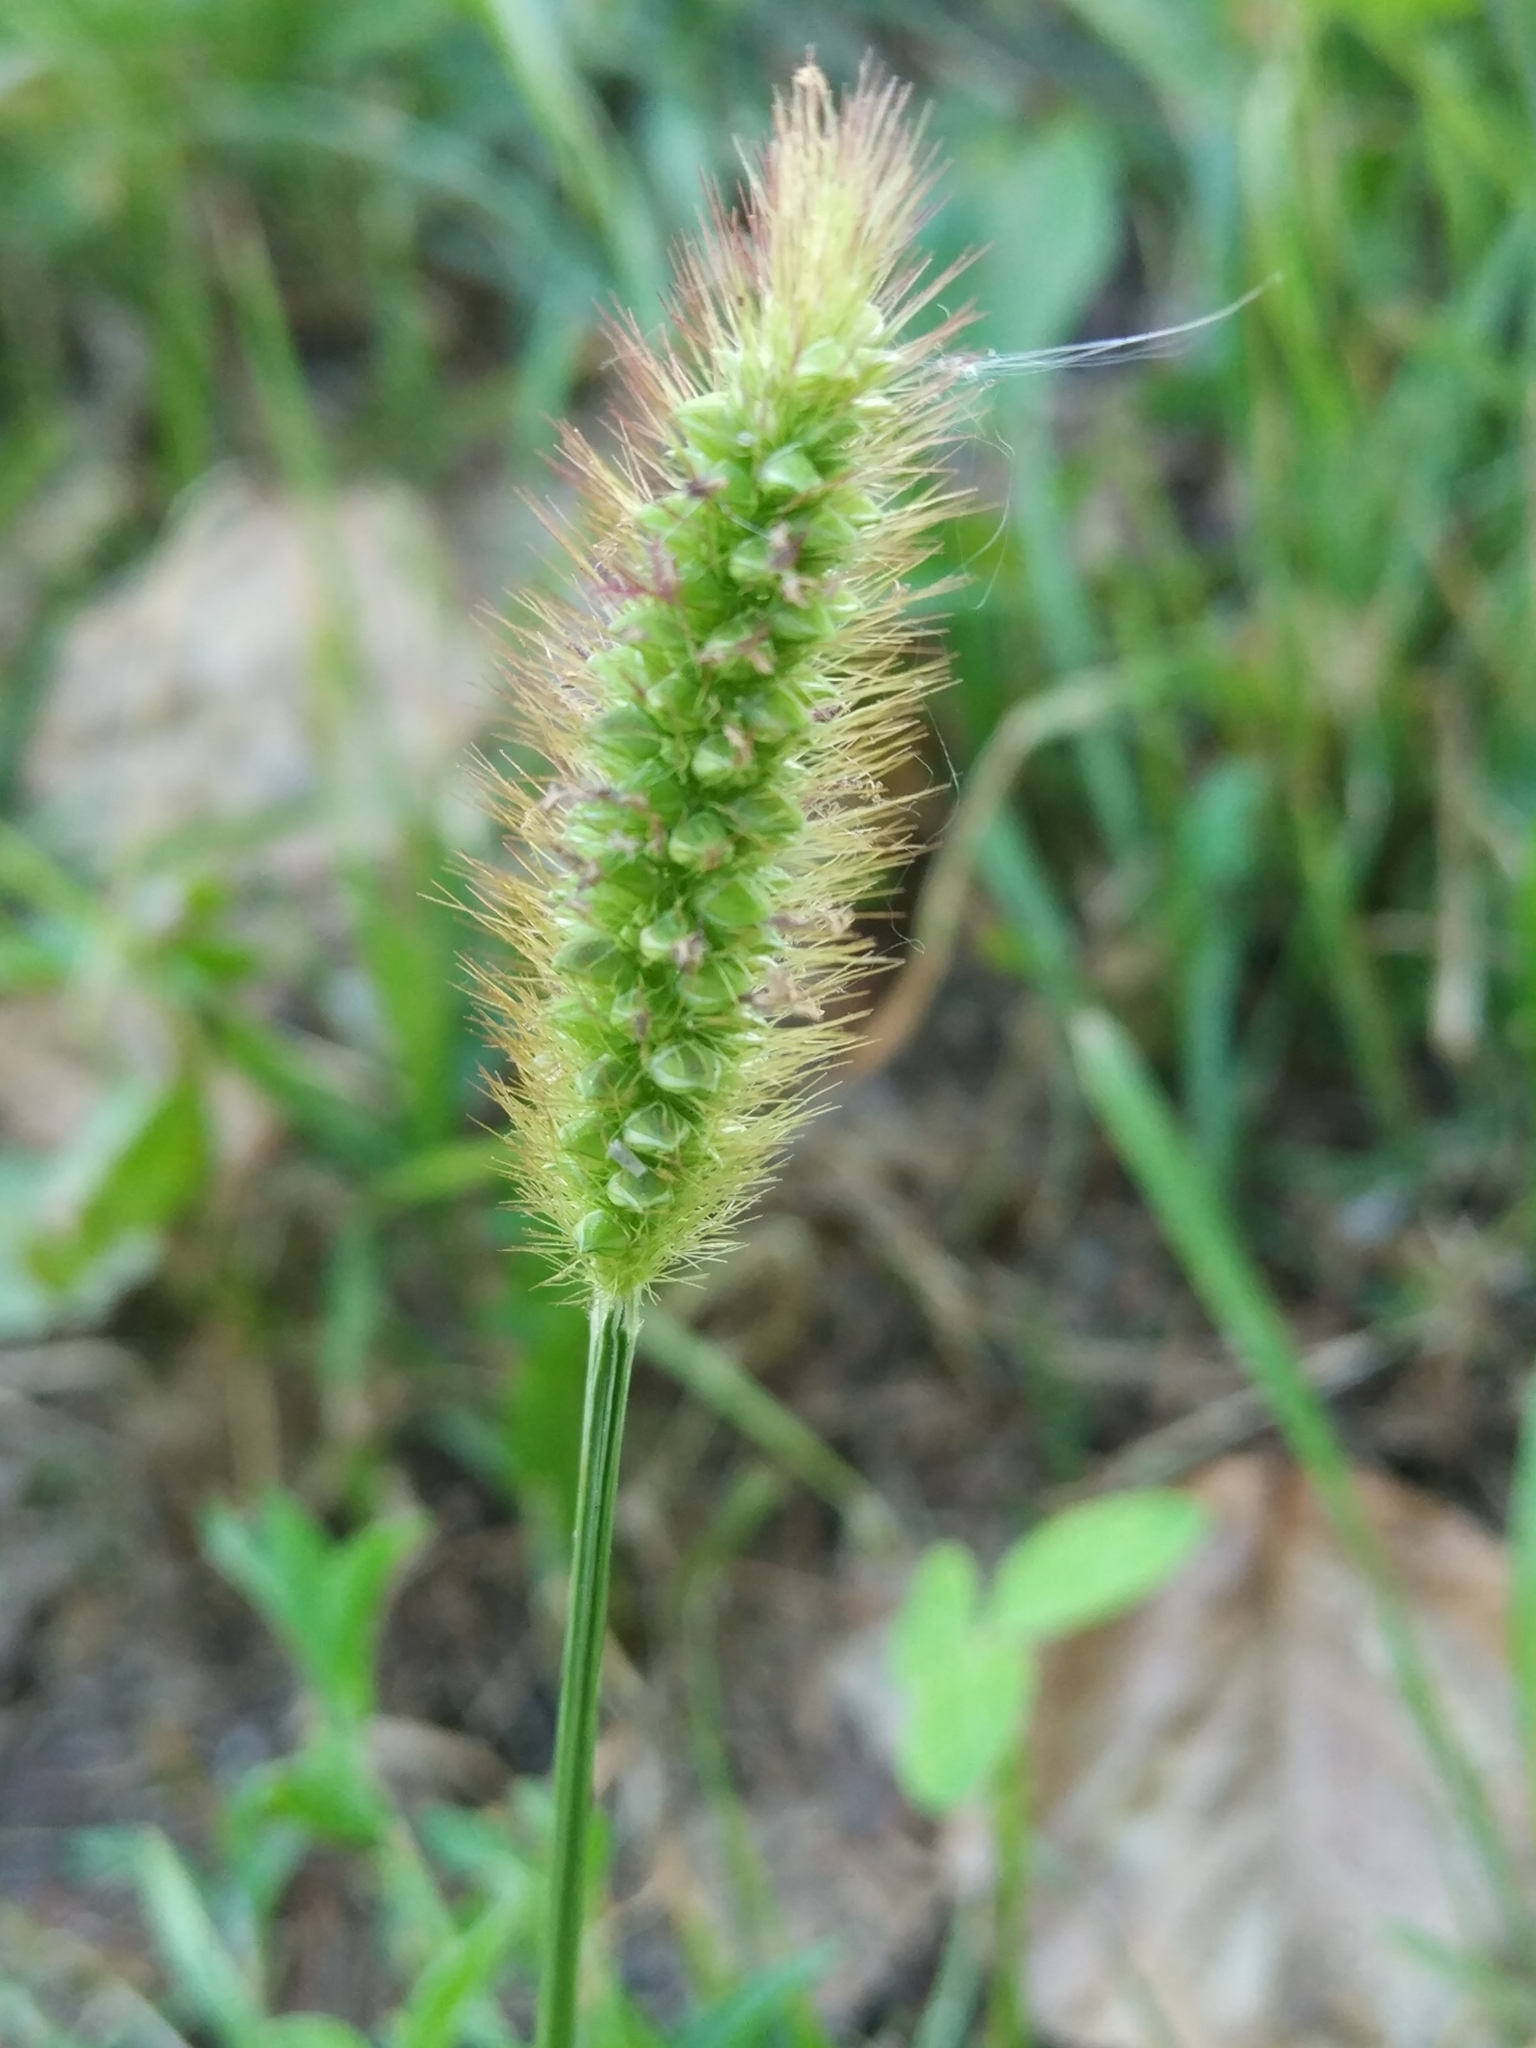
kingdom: Plantae
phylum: Tracheophyta
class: Liliopsida
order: Poales
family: Poaceae
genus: Setaria
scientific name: Setaria pumila
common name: Yellow bristle-grass
